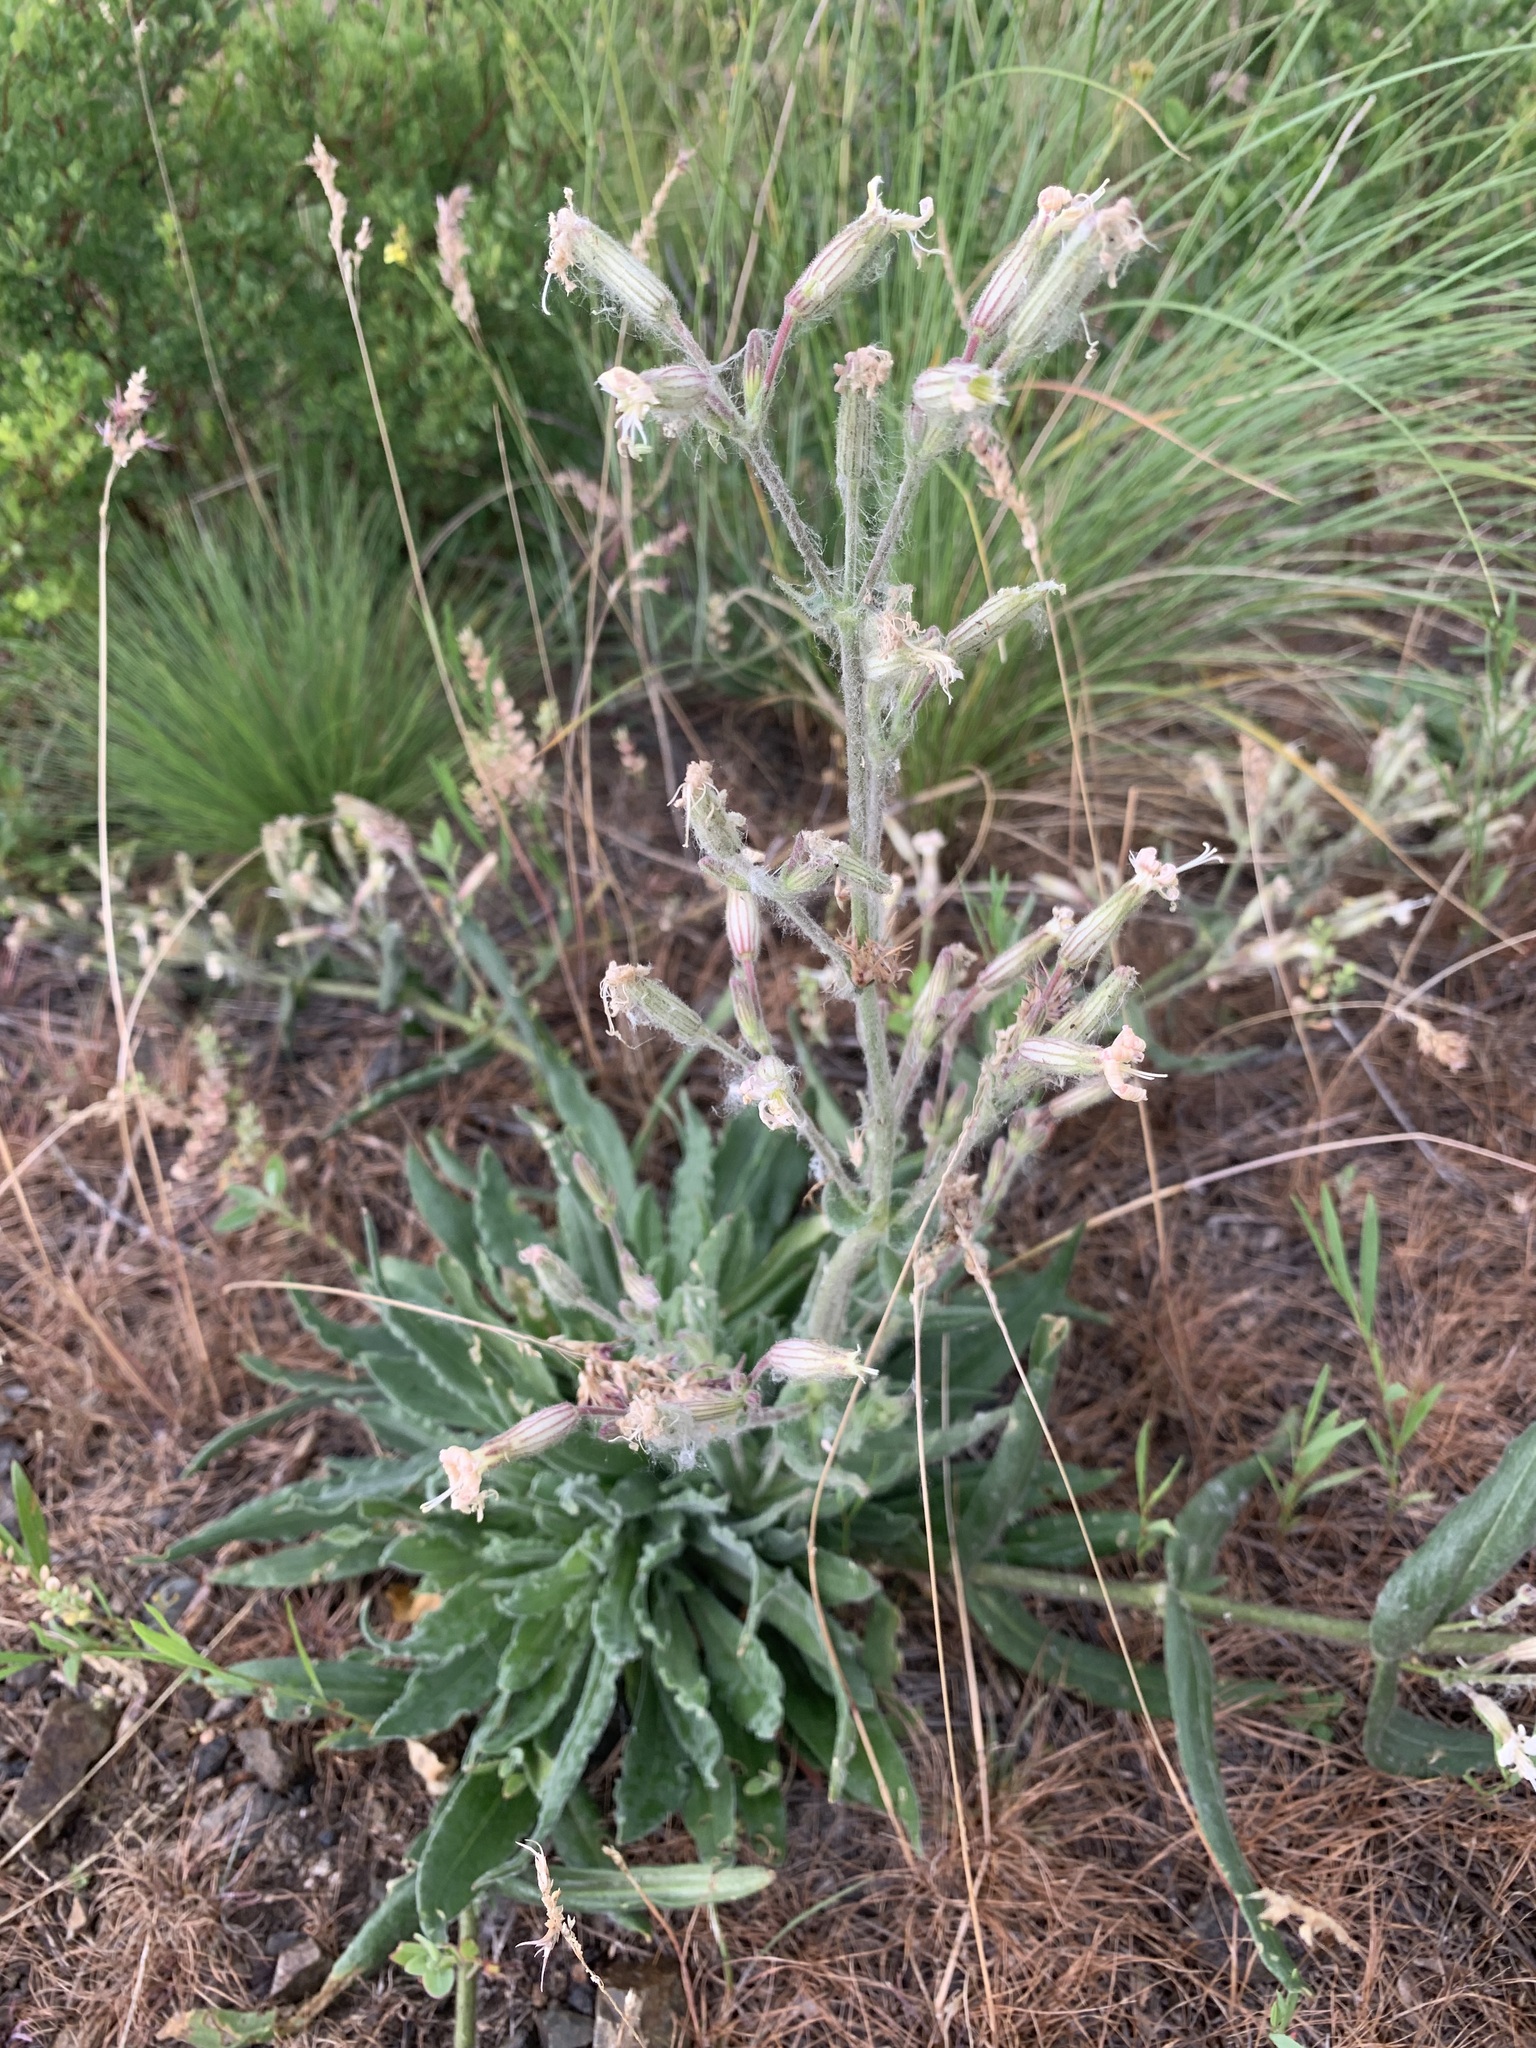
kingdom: Plantae
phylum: Tracheophyta
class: Magnoliopsida
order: Caryophyllales
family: Caryophyllaceae
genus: Silene
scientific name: Silene viscosa
